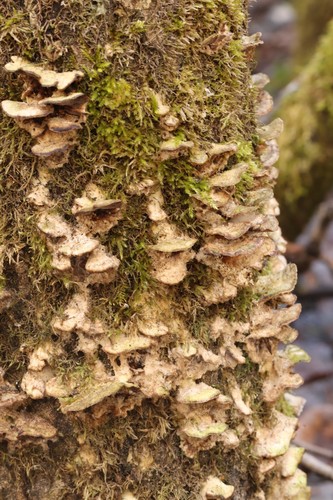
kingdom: Fungi
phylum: Basidiomycota
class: Agaricomycetes
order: Polyporales
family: Phanerochaetaceae
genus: Bjerkandera
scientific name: Bjerkandera adusta
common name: Smoky bracket
